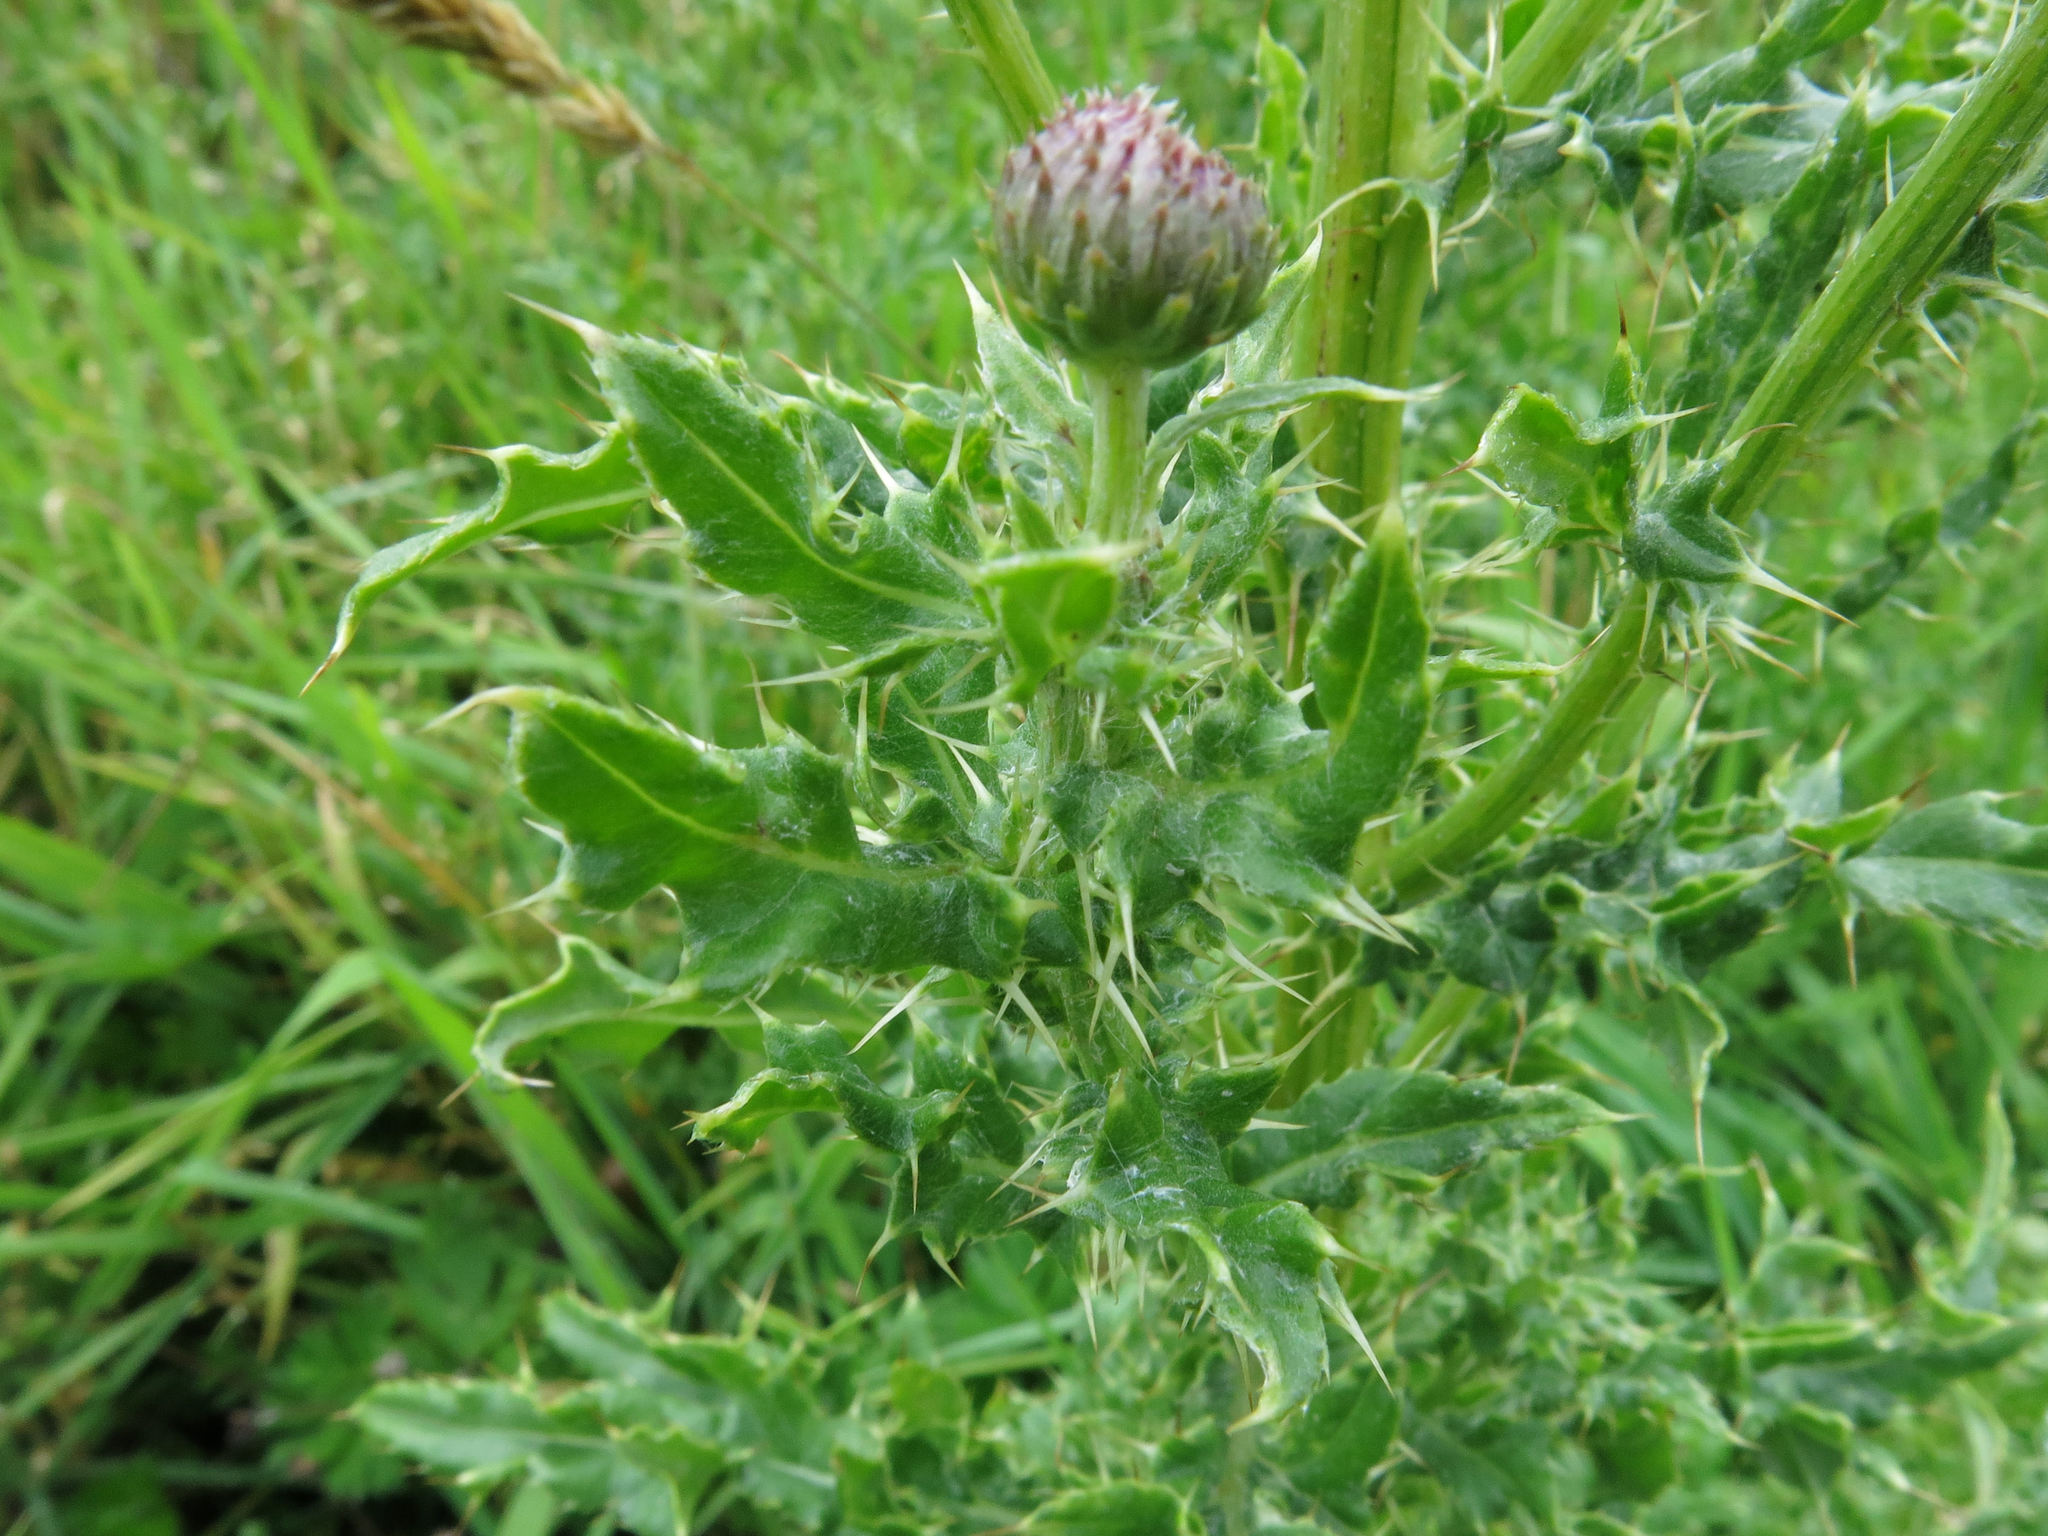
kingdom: Plantae
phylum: Tracheophyta
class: Magnoliopsida
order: Asterales
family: Asteraceae
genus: Cirsium
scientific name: Cirsium arvense
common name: Creeping thistle
